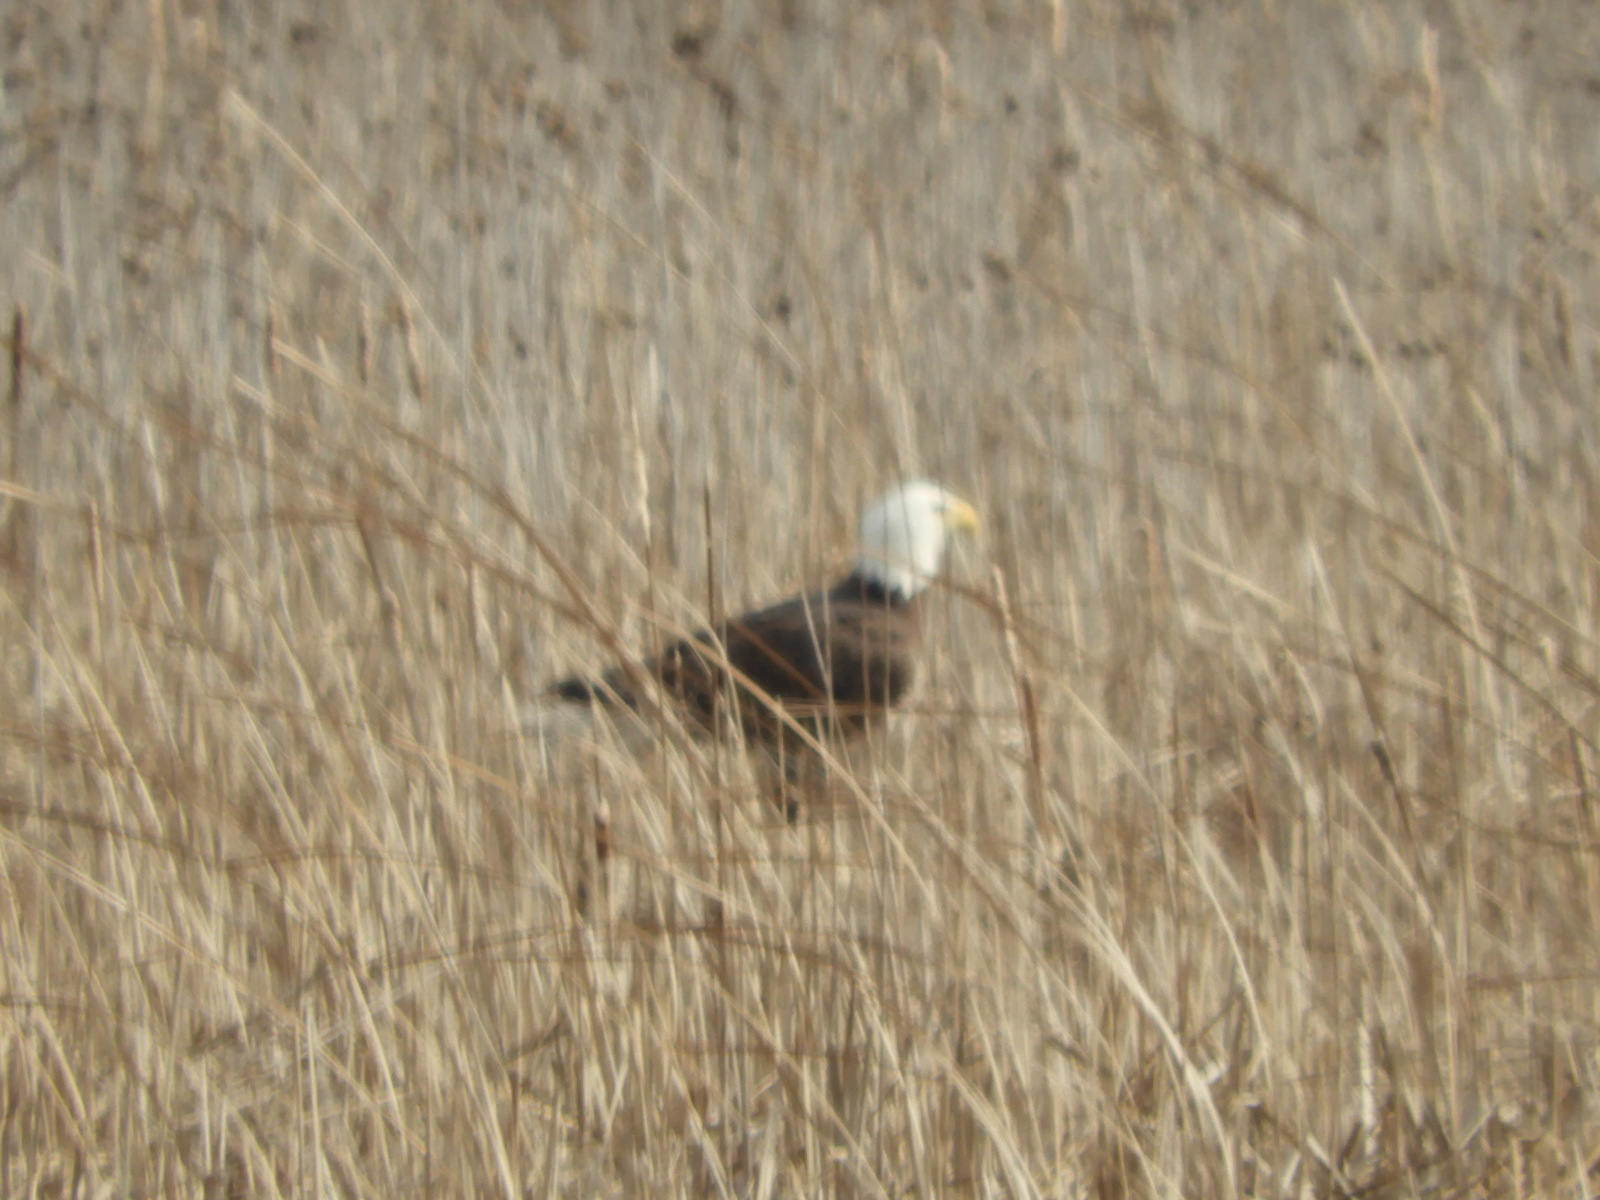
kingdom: Animalia
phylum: Chordata
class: Aves
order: Accipitriformes
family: Accipitridae
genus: Haliaeetus
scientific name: Haliaeetus leucocephalus
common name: Bald eagle
